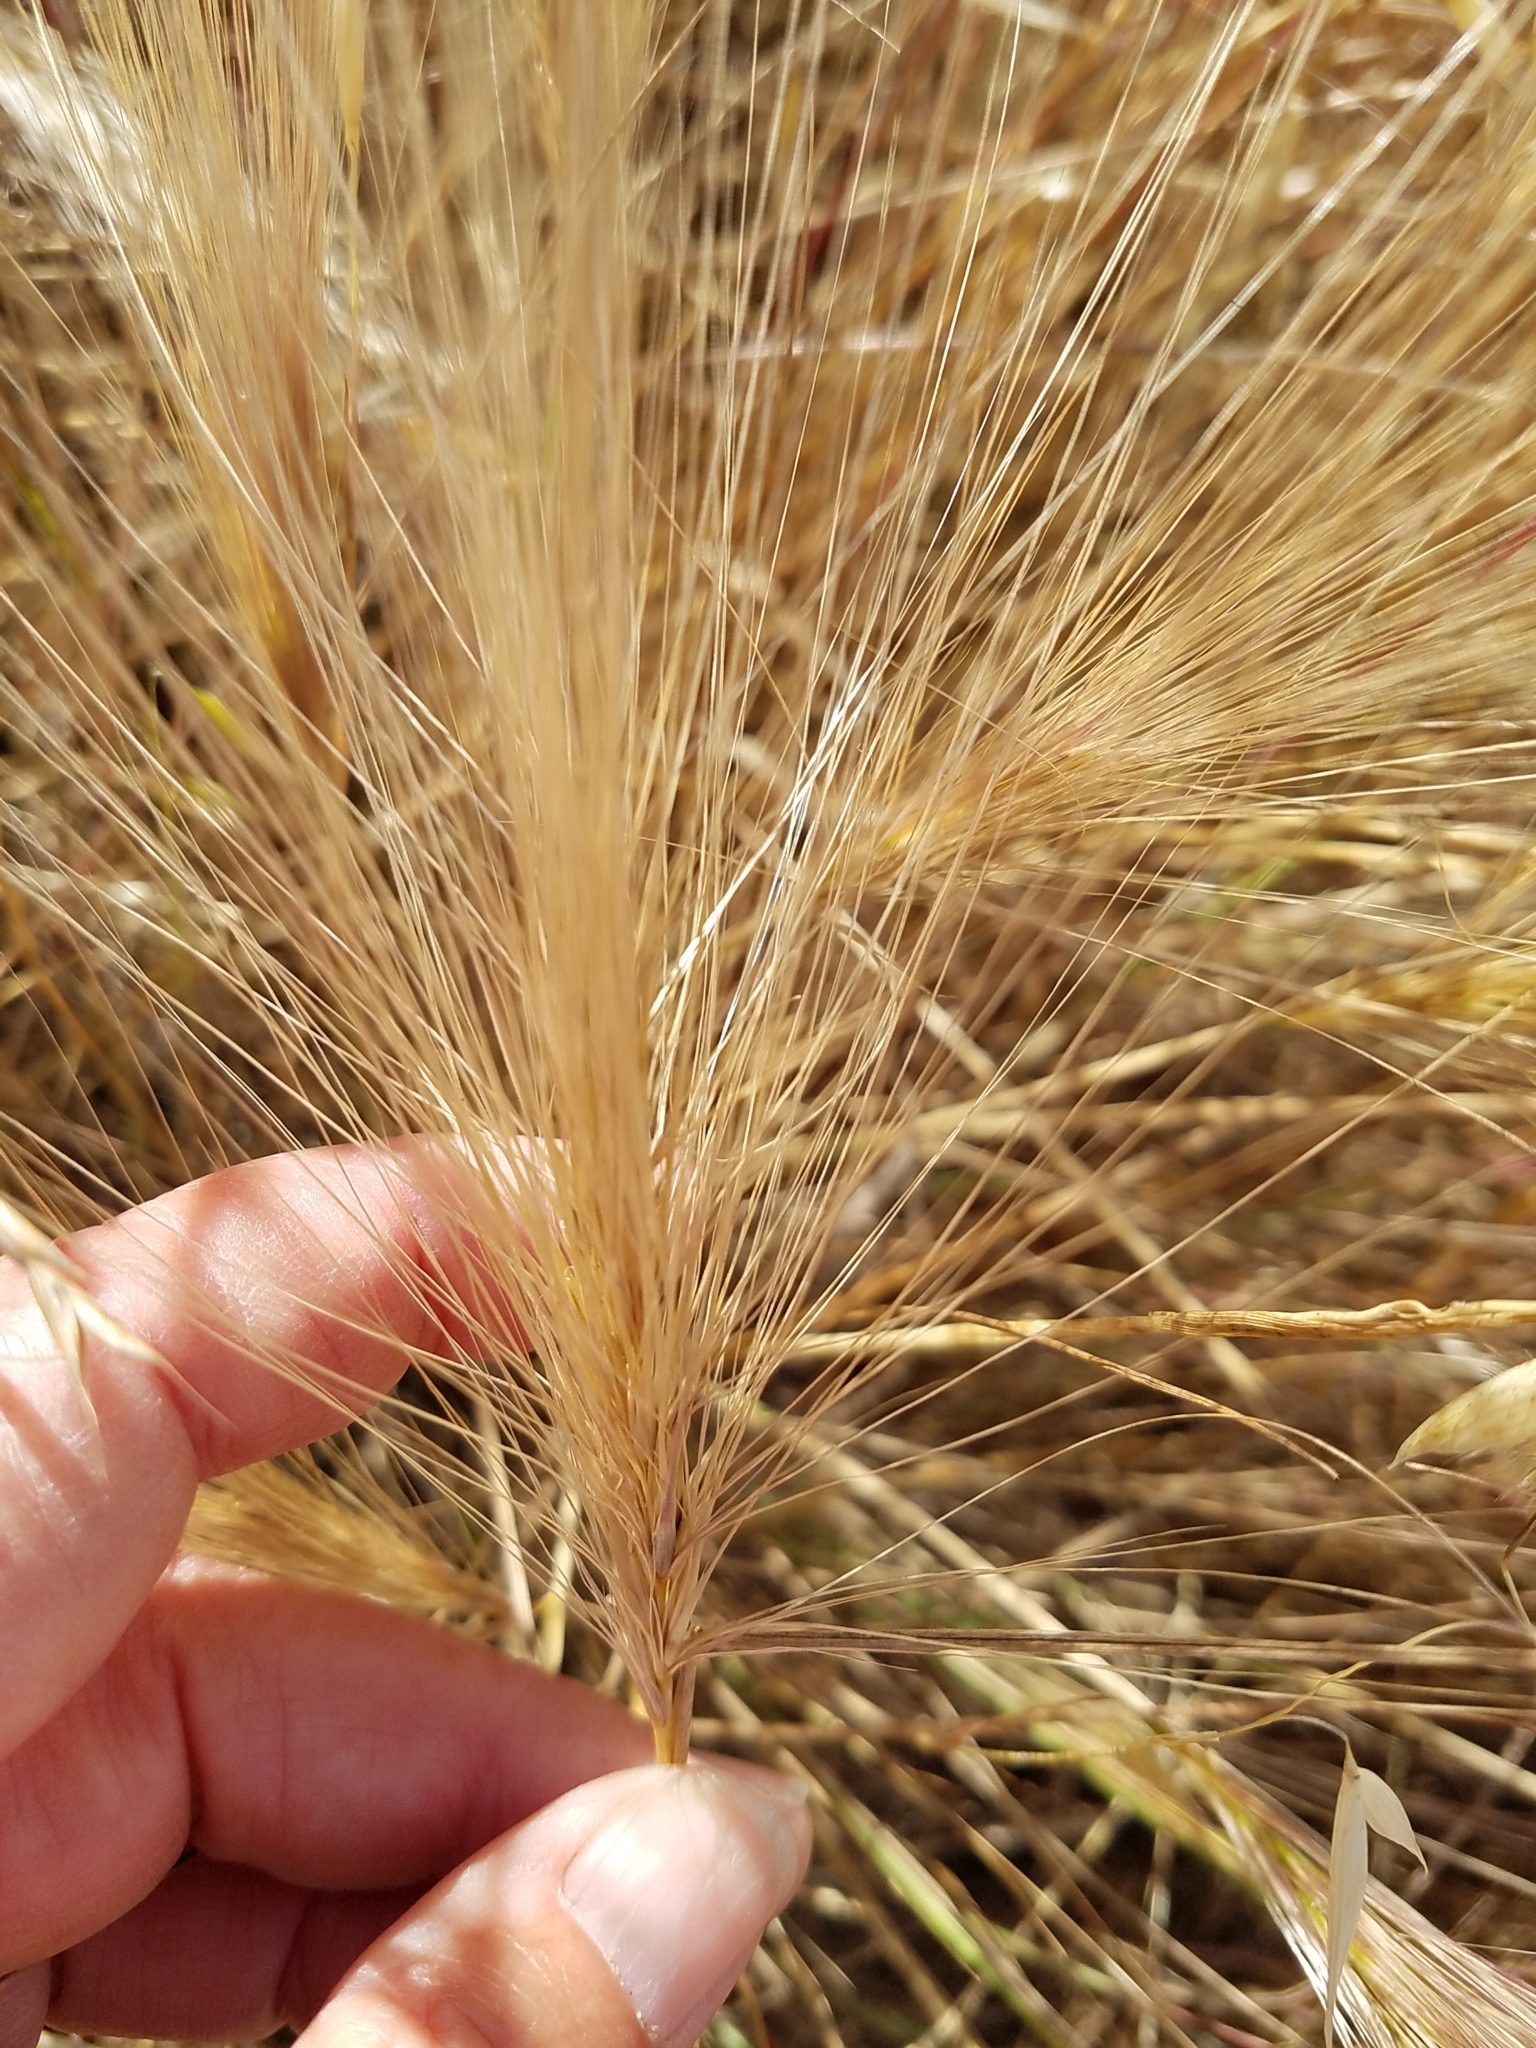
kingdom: Plantae
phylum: Tracheophyta
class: Liliopsida
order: Poales
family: Poaceae
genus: Elymus
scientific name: Elymus multisetus
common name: Big squirreltail
